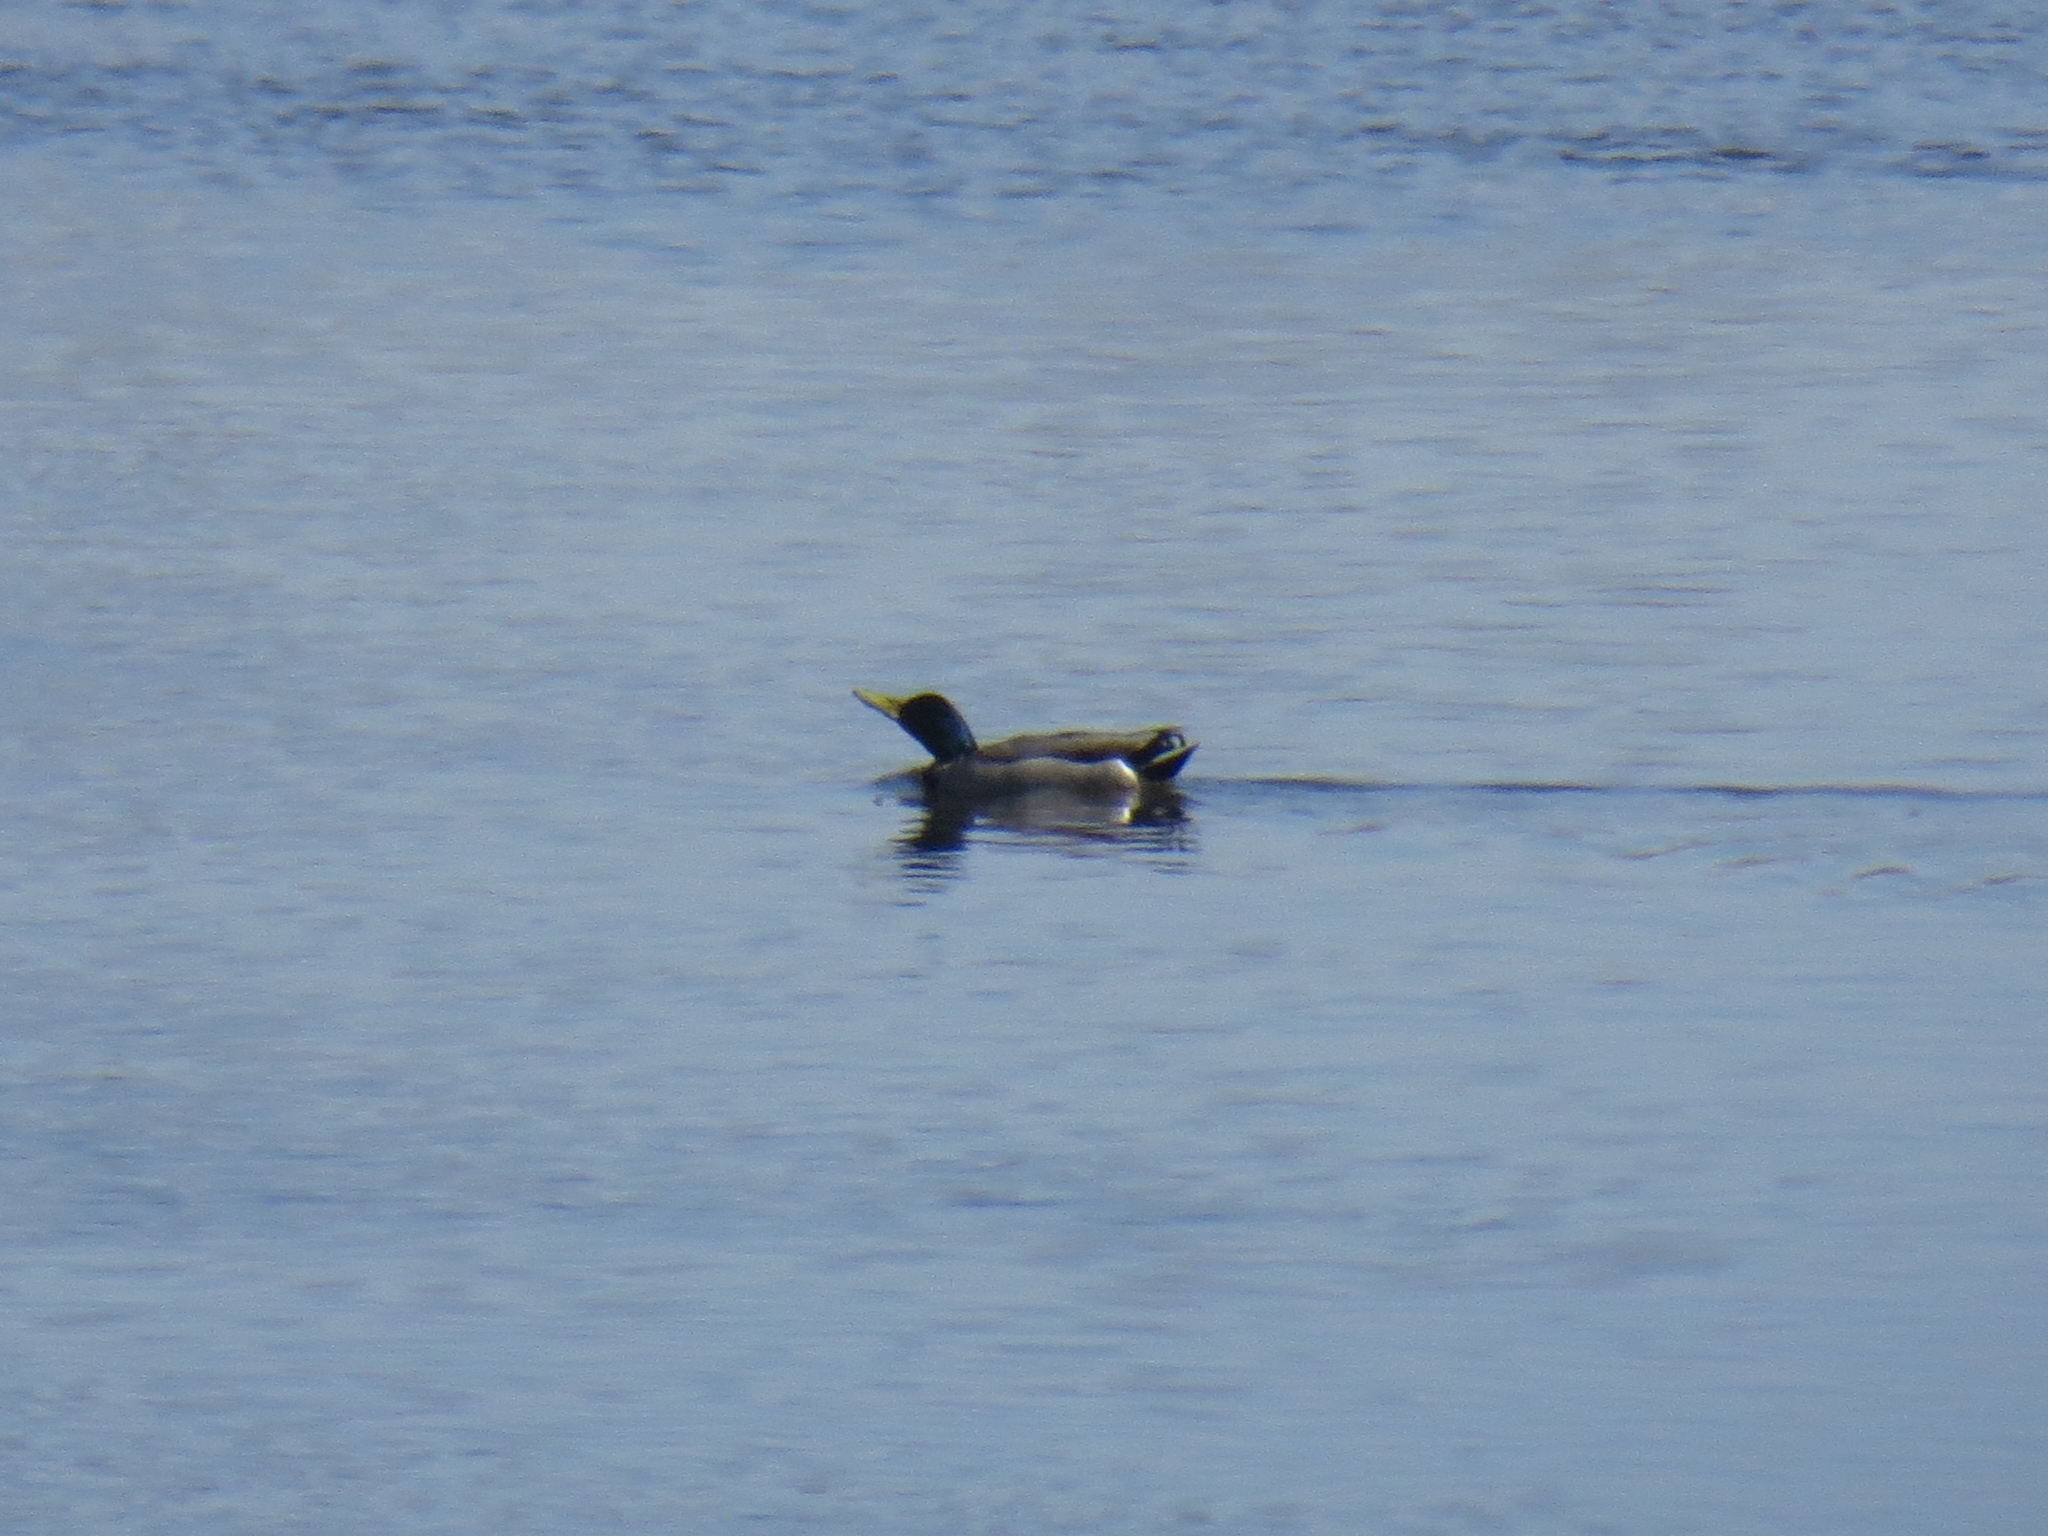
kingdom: Animalia
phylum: Chordata
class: Aves
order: Anseriformes
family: Anatidae
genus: Anas
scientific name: Anas platyrhynchos
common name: Mallard
